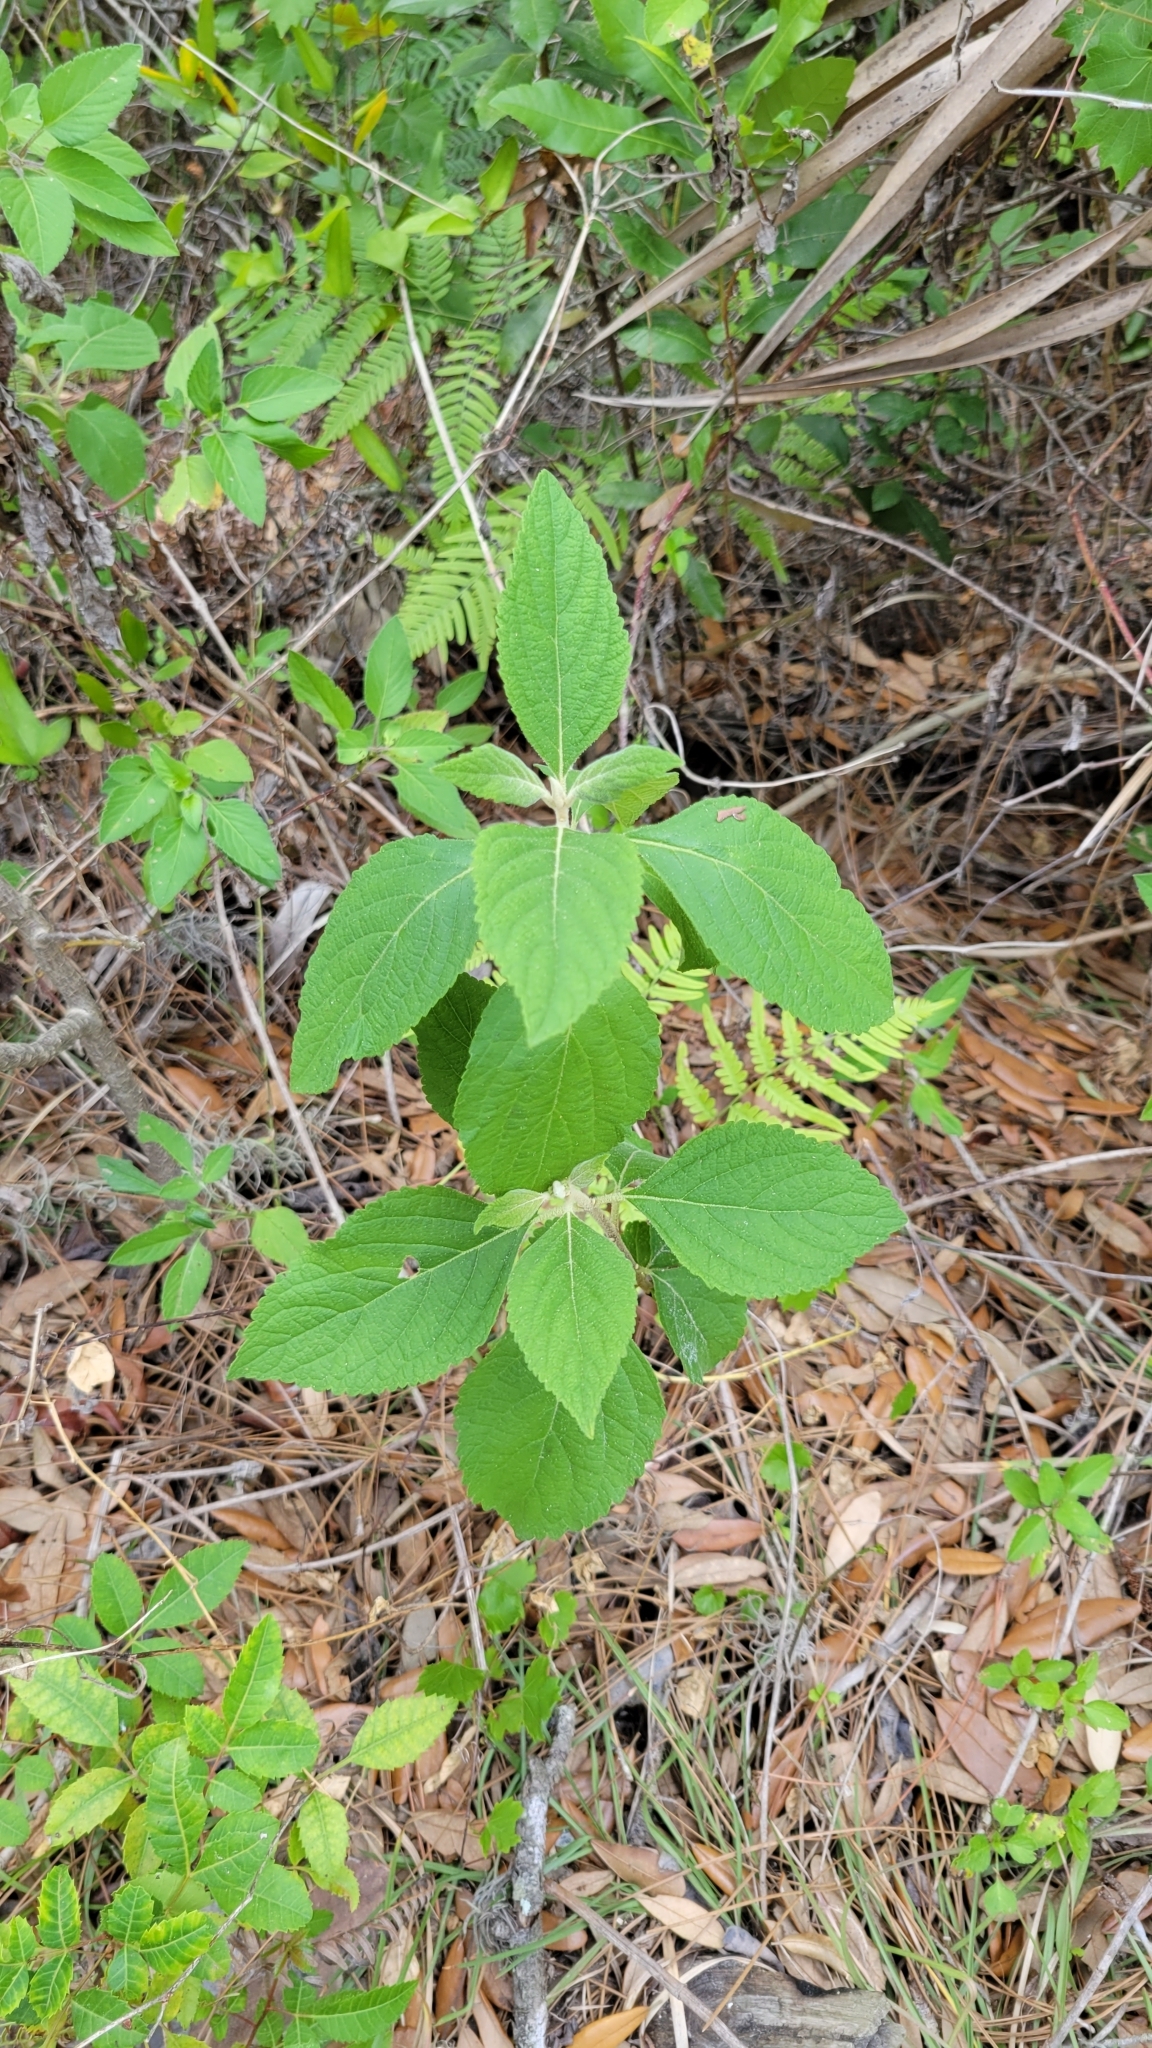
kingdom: Plantae
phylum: Tracheophyta
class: Magnoliopsida
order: Lamiales
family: Lamiaceae
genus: Callicarpa
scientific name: Callicarpa americana
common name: American beautyberry
